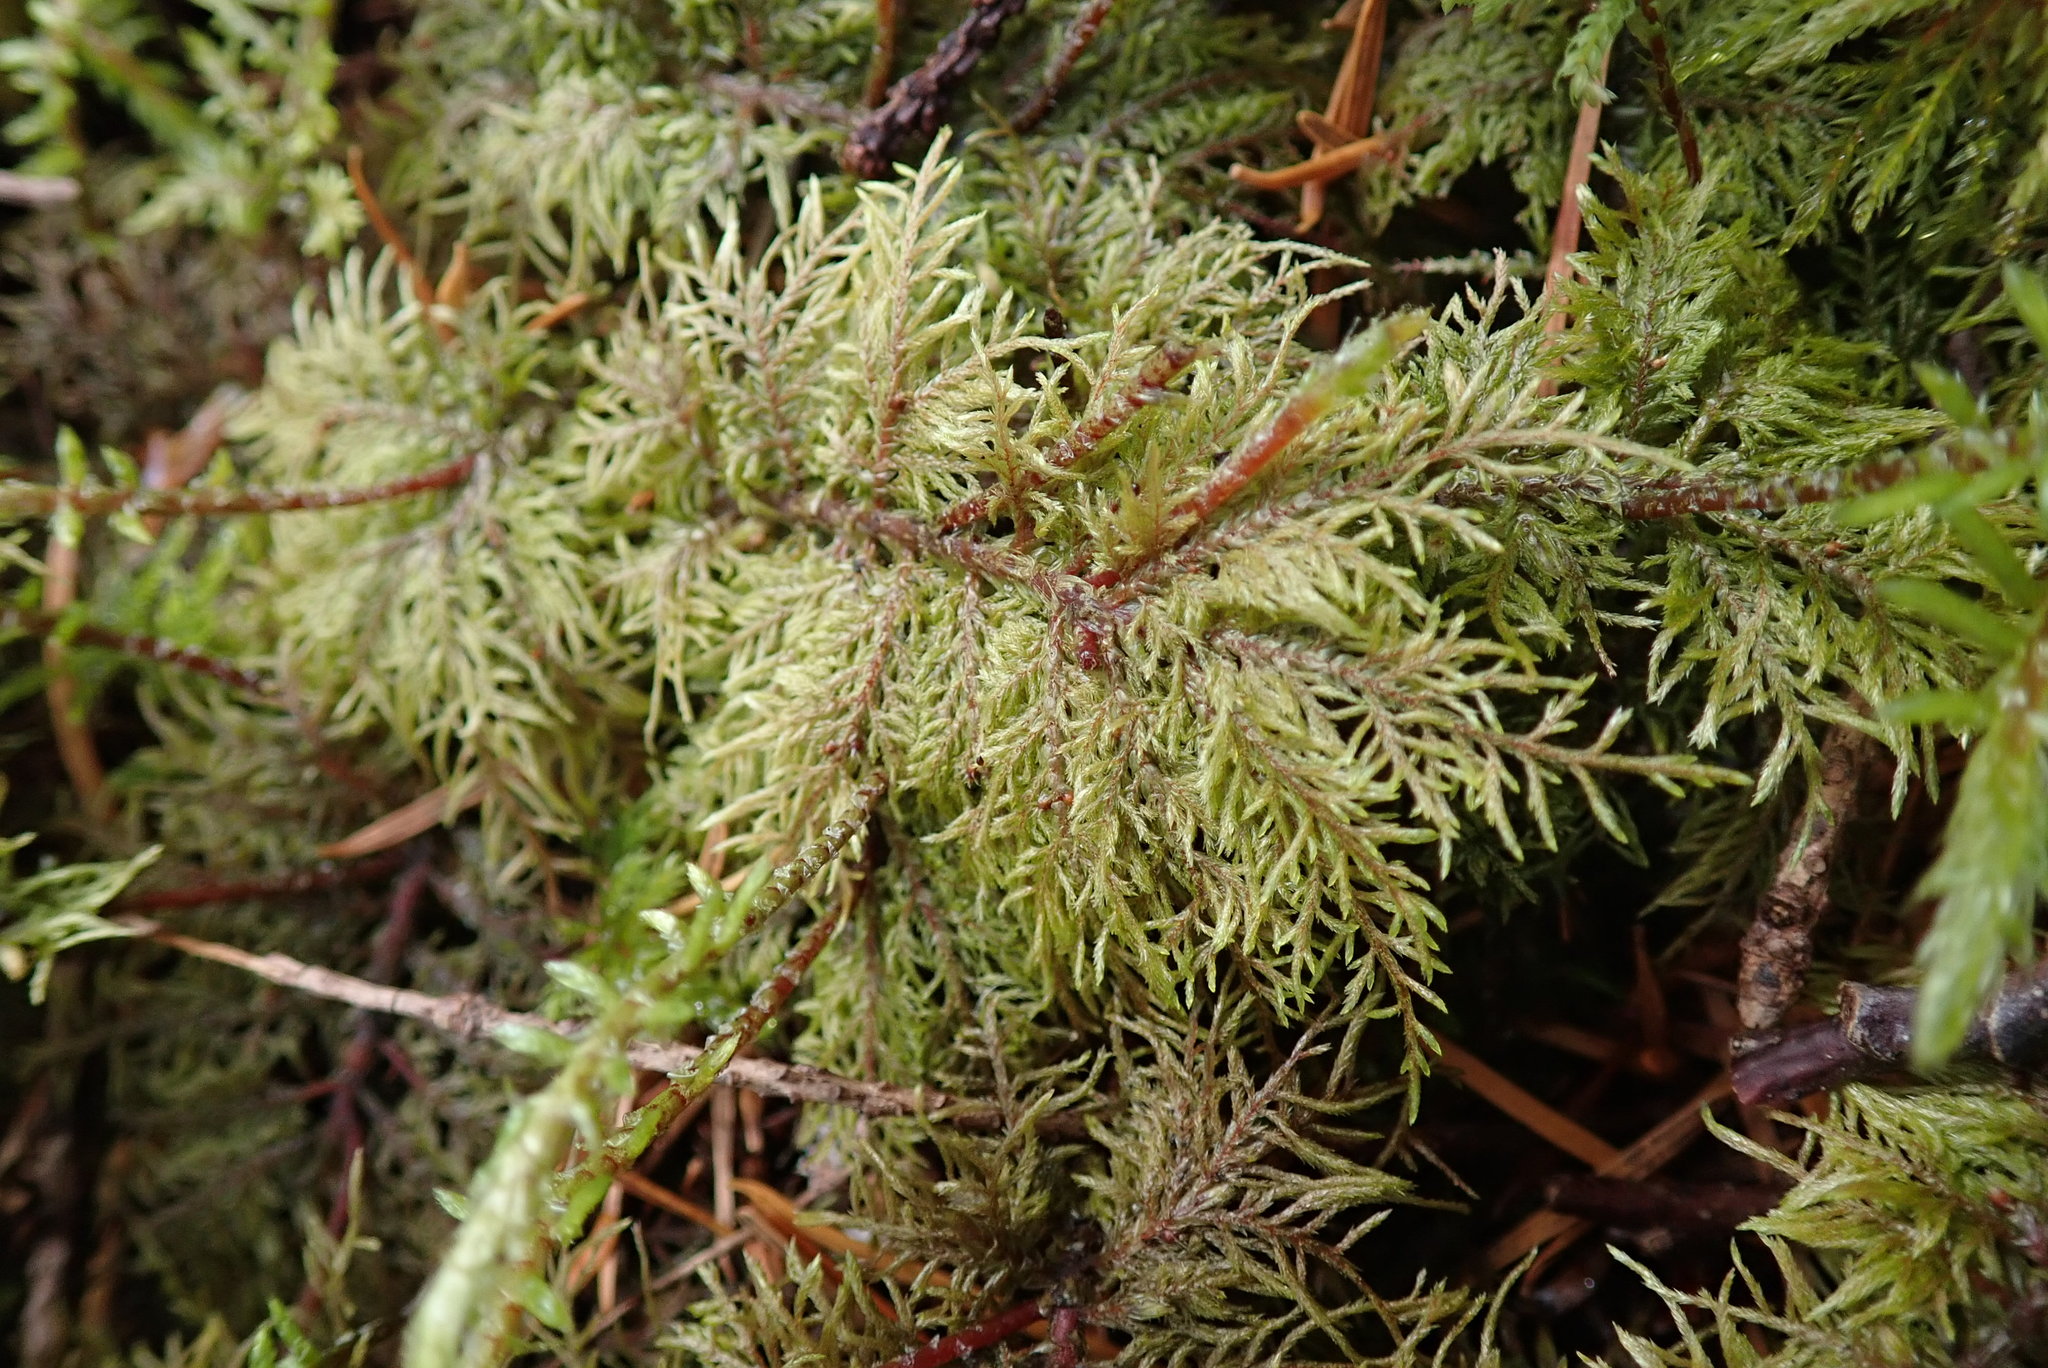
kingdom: Plantae
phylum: Bryophyta
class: Bryopsida
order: Hypnales
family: Hylocomiaceae
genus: Hylocomium
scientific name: Hylocomium splendens
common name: Stairstep moss
